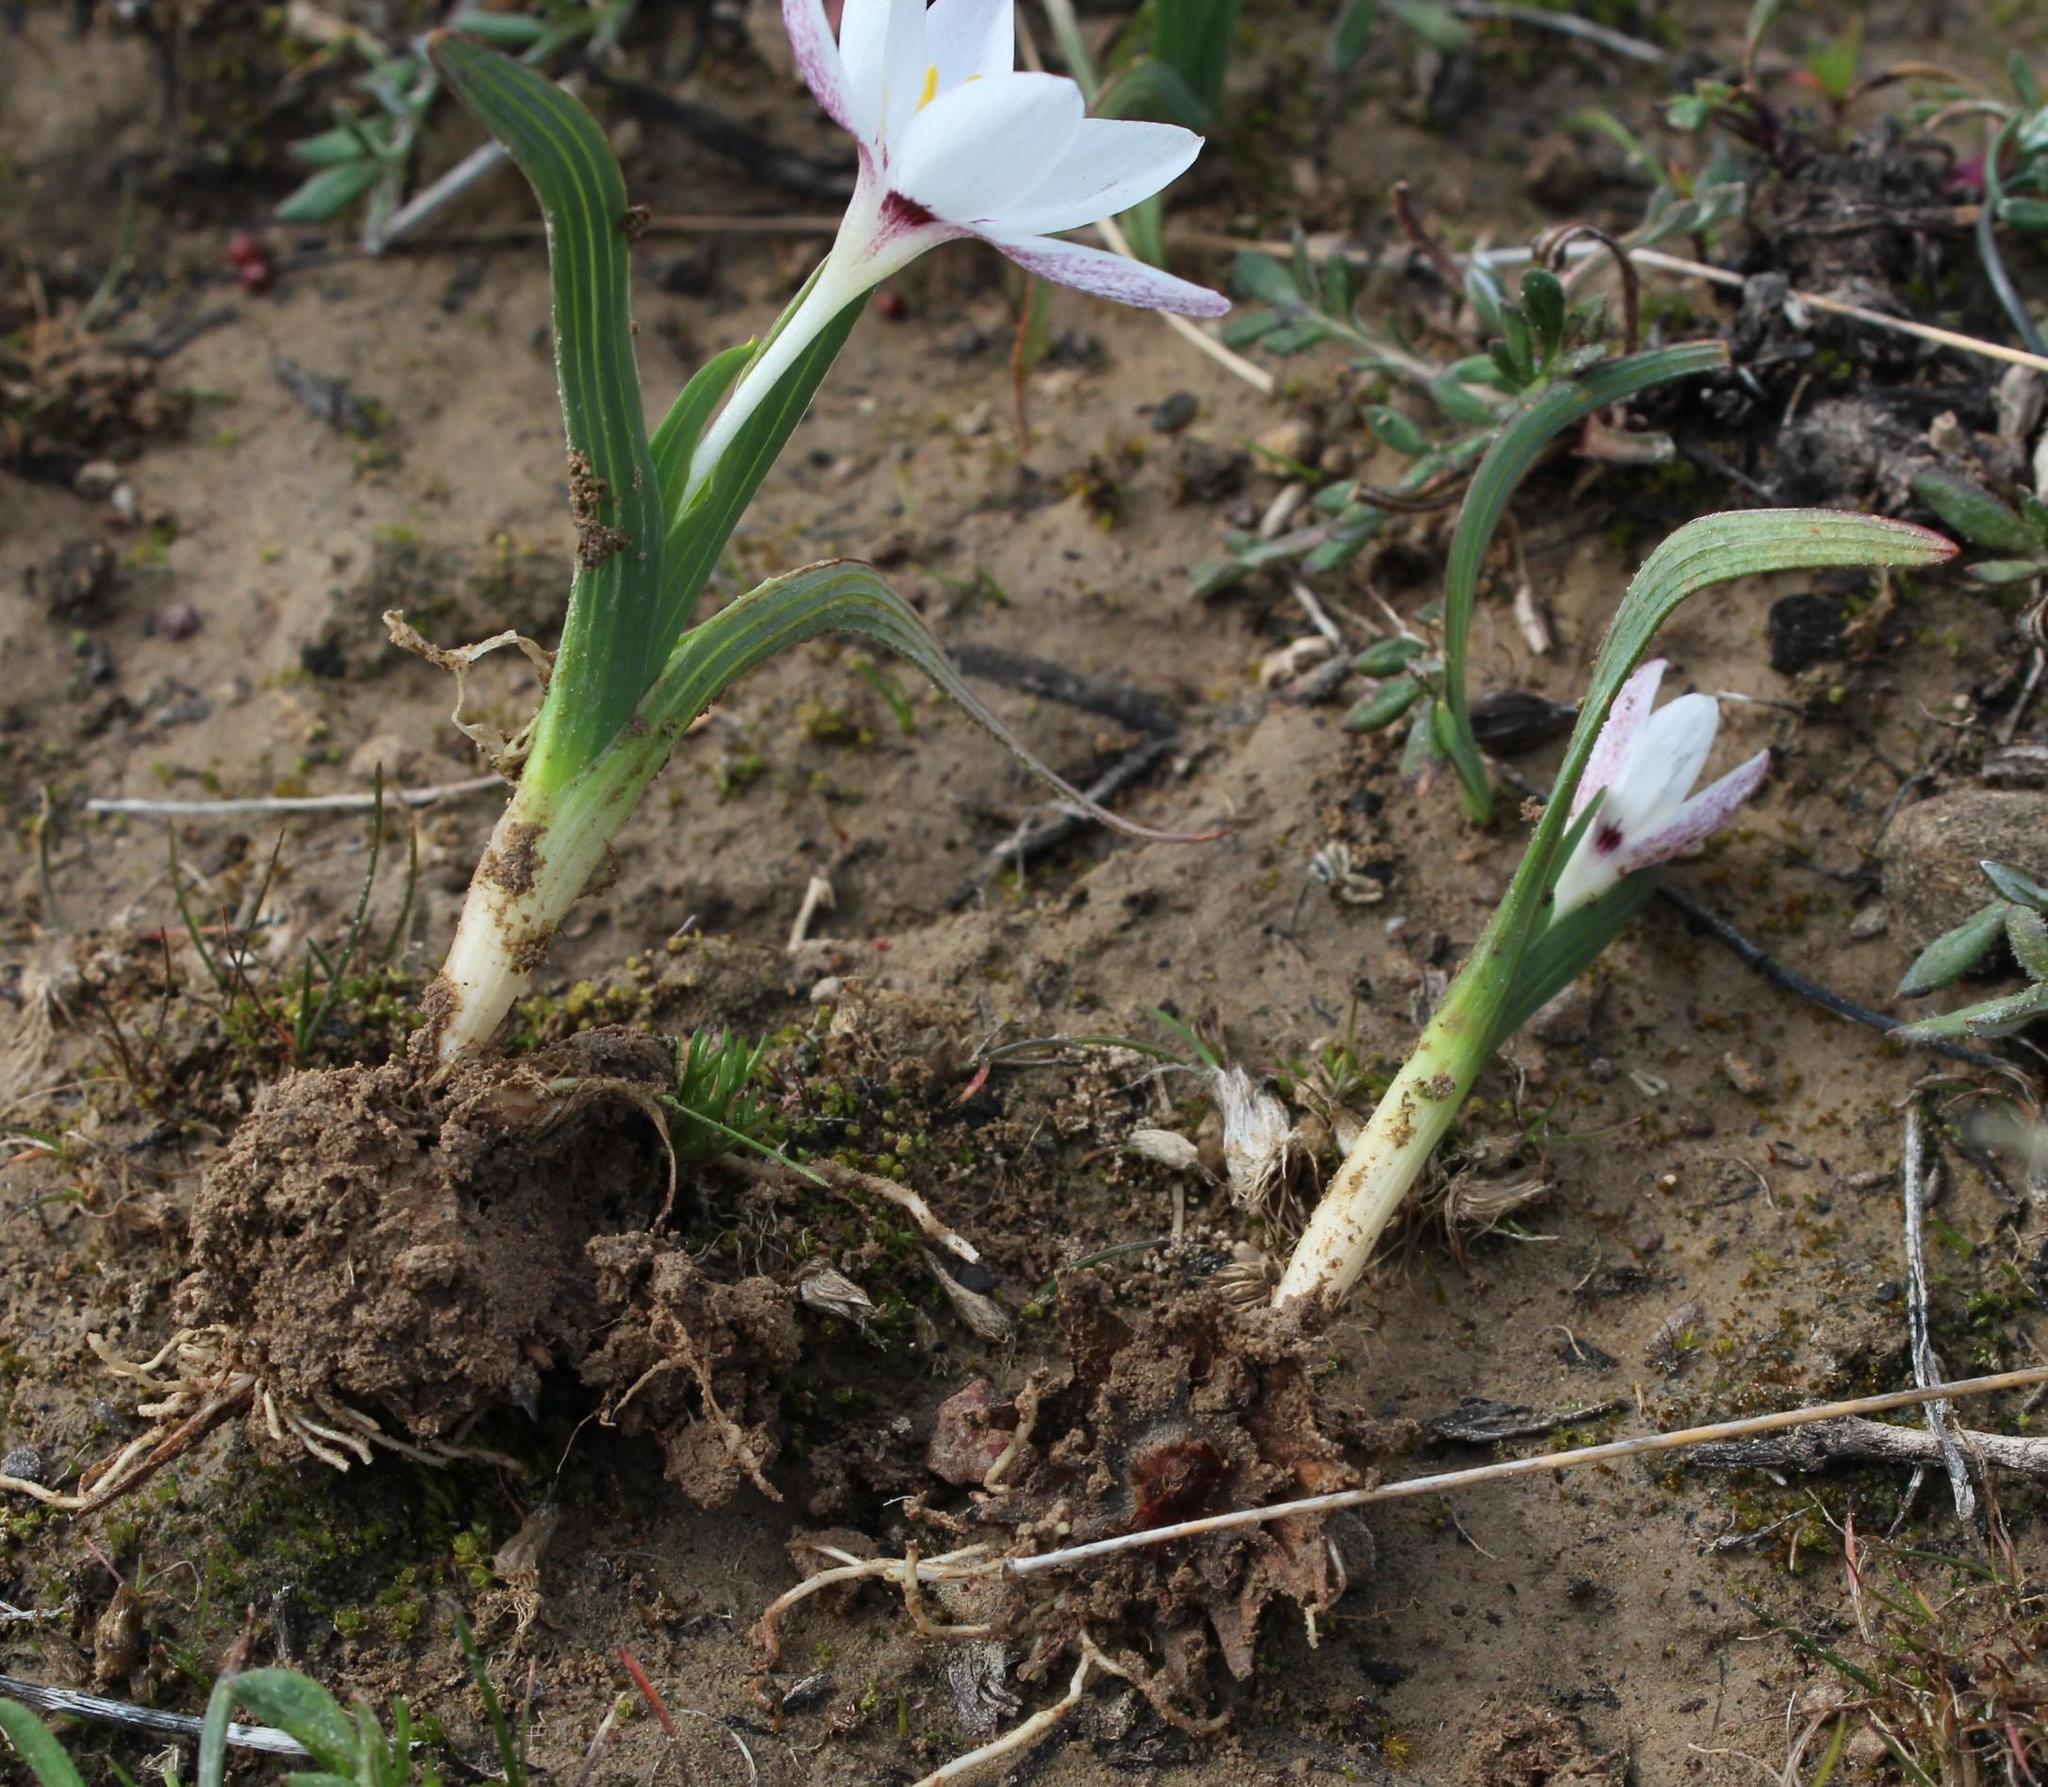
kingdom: Plantae
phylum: Tracheophyta
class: Liliopsida
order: Asparagales
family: Iridaceae
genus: Hesperantha
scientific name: Hesperantha luticola
